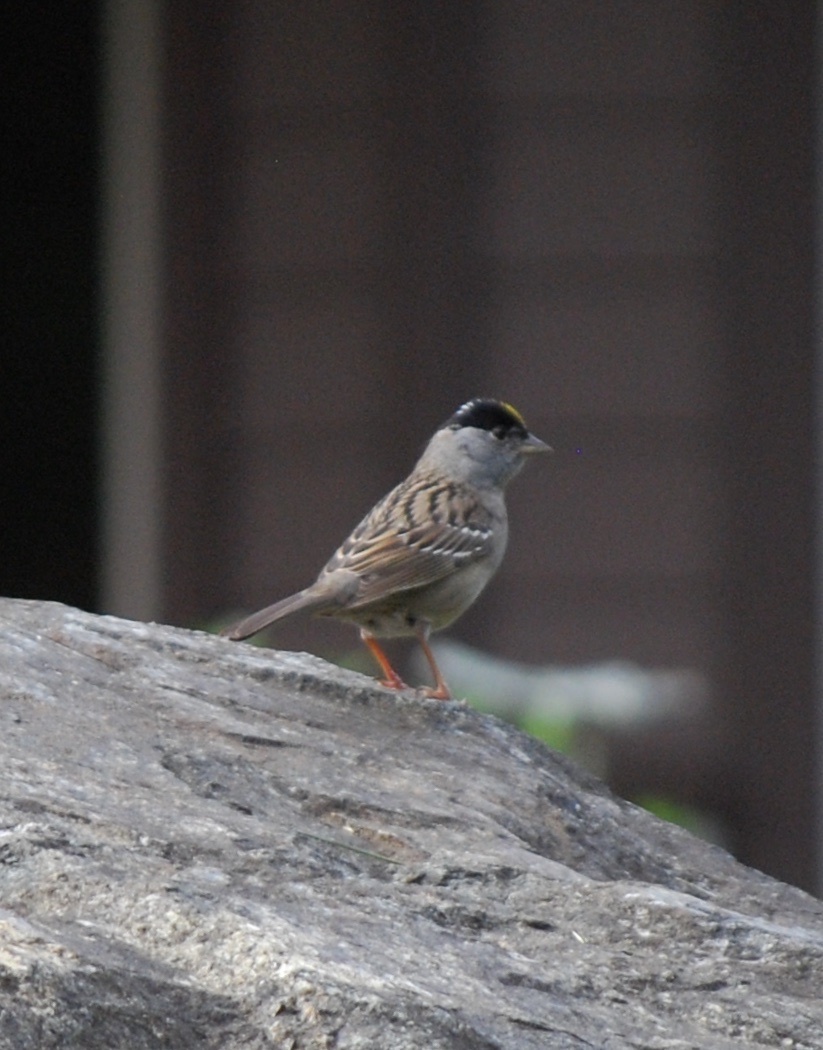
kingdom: Animalia
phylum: Chordata
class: Aves
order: Passeriformes
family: Passerellidae
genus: Zonotrichia
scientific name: Zonotrichia atricapilla
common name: Golden-crowned sparrow
